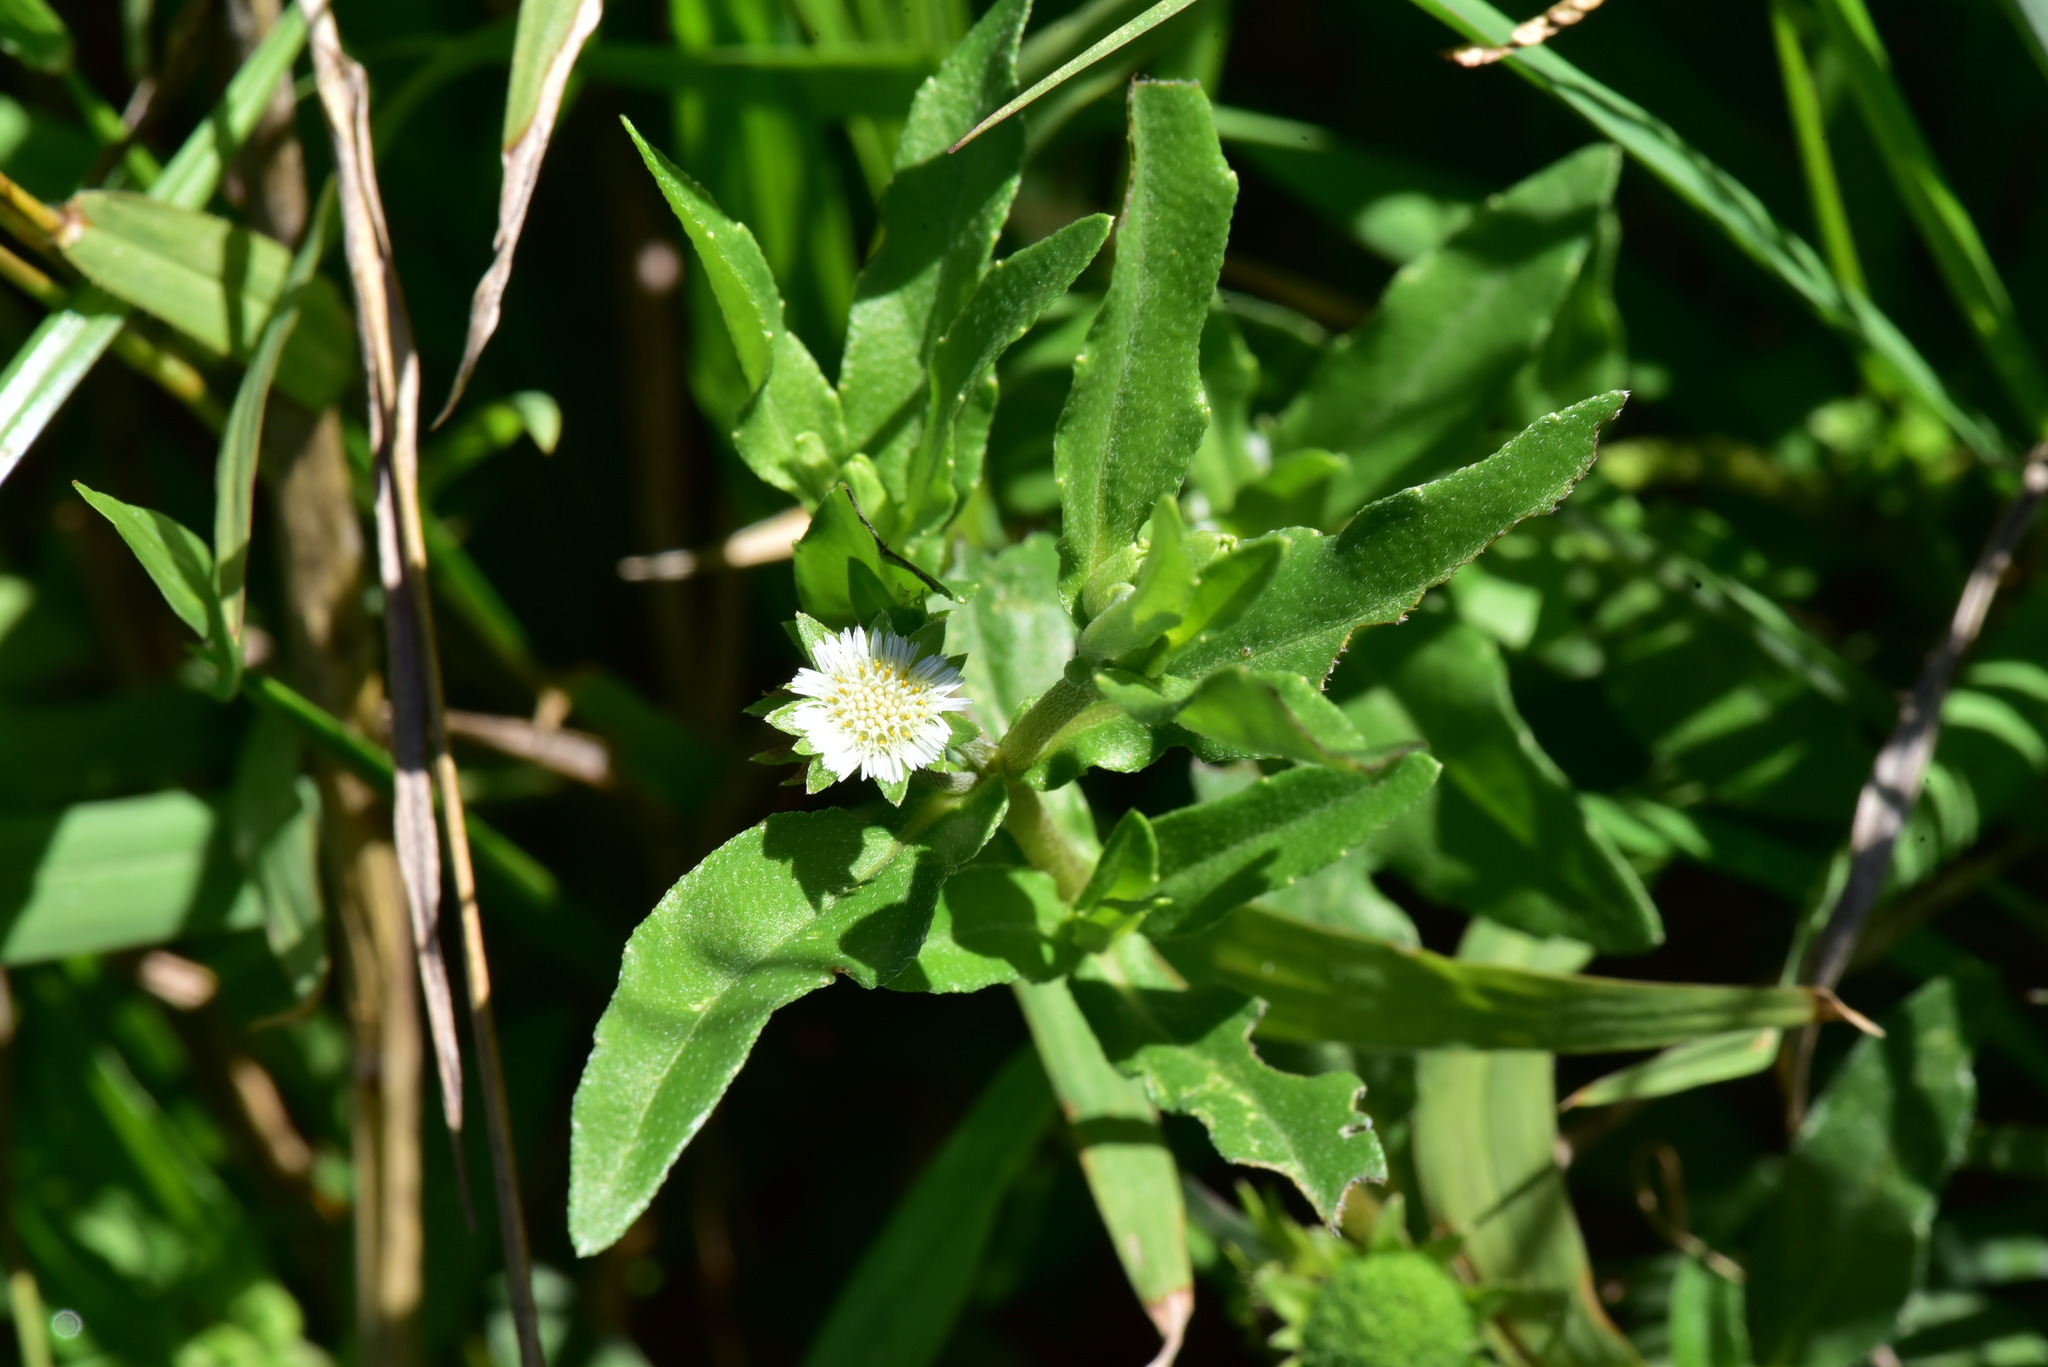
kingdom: Plantae
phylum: Tracheophyta
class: Magnoliopsida
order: Asterales
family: Asteraceae
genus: Eclipta
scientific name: Eclipta prostrata
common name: False daisy
